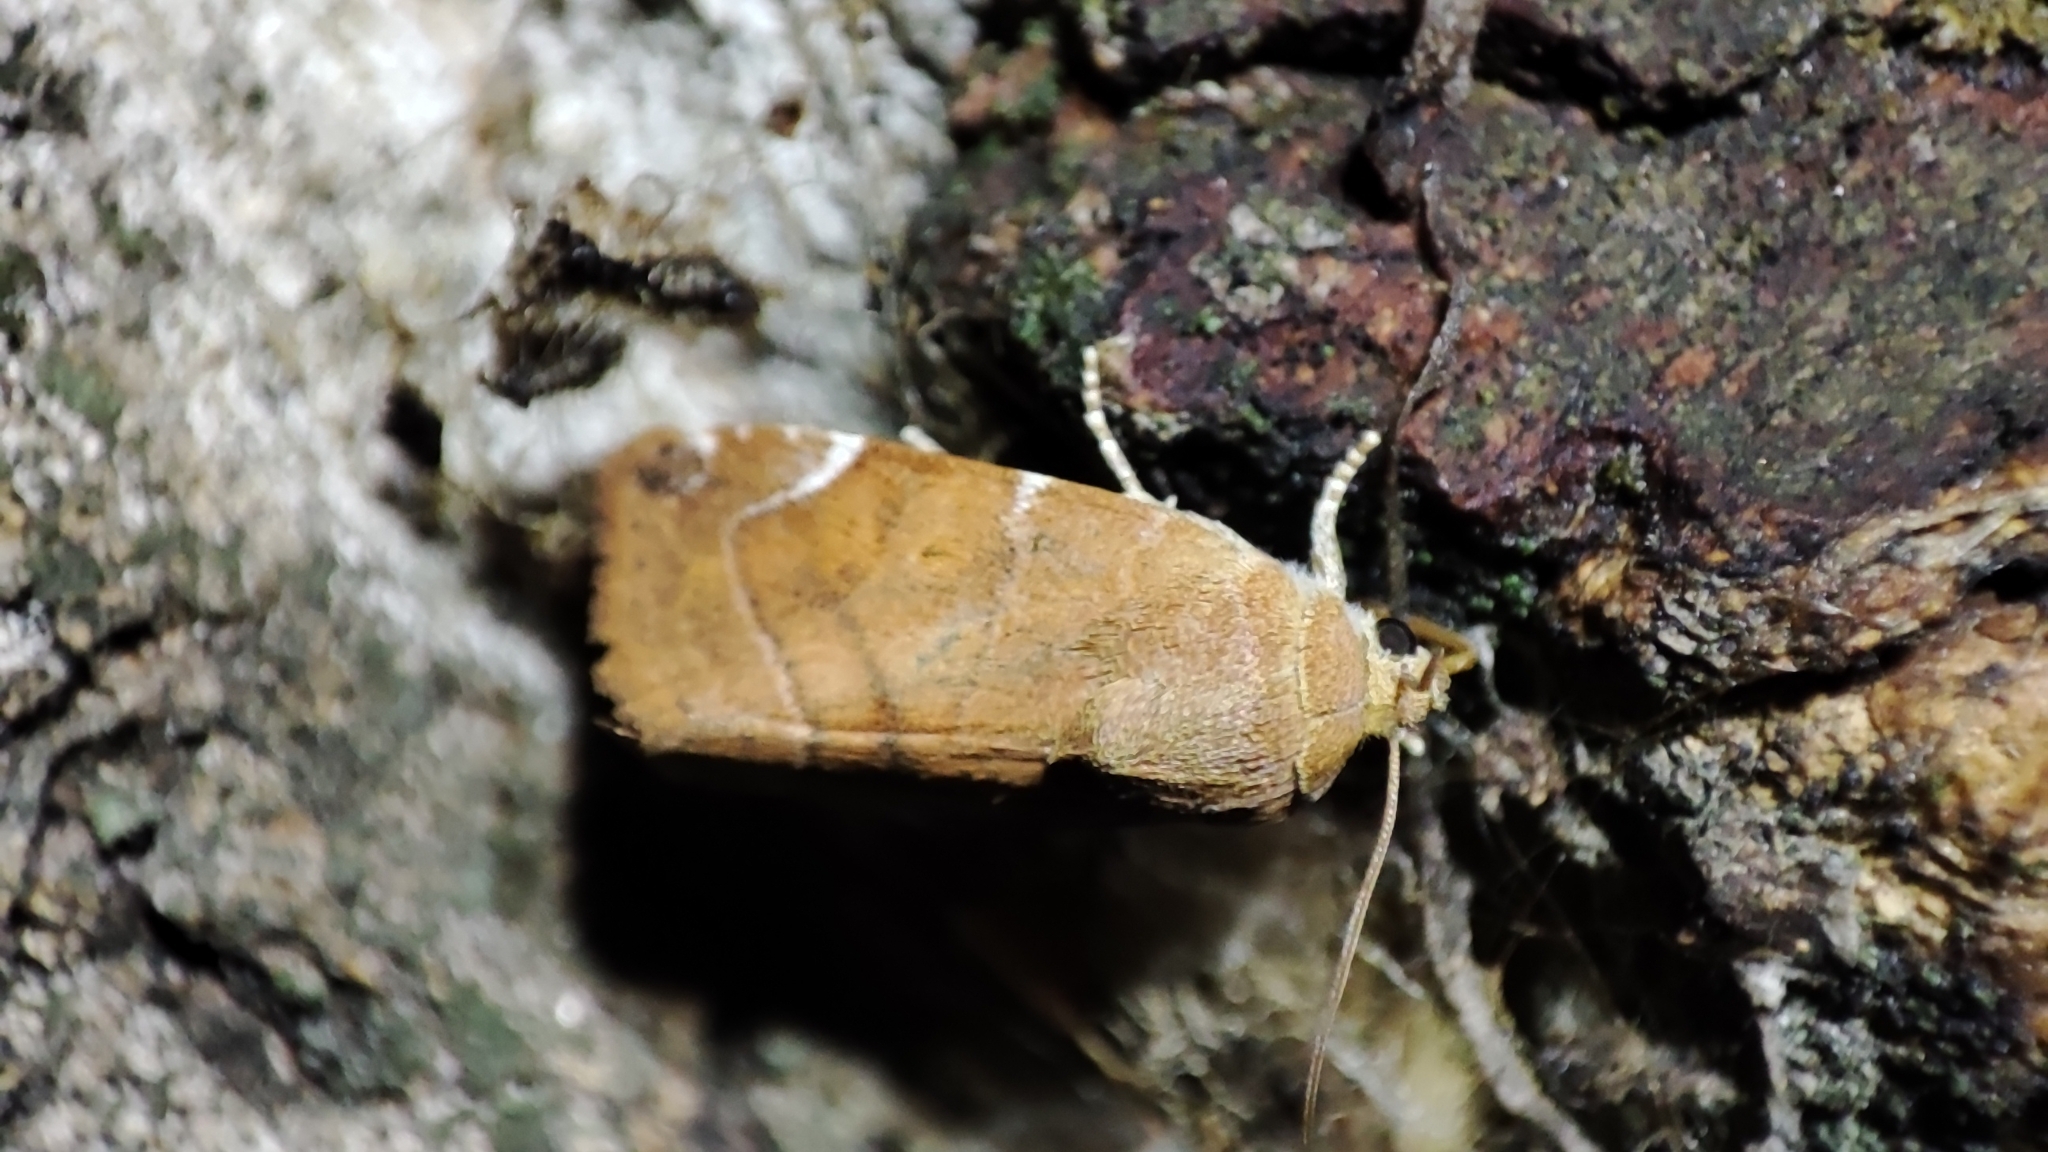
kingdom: Animalia
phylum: Arthropoda
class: Insecta
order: Lepidoptera
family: Noctuidae
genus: Cosmia
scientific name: Cosmia affinis
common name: Lesser-spotted pinion
